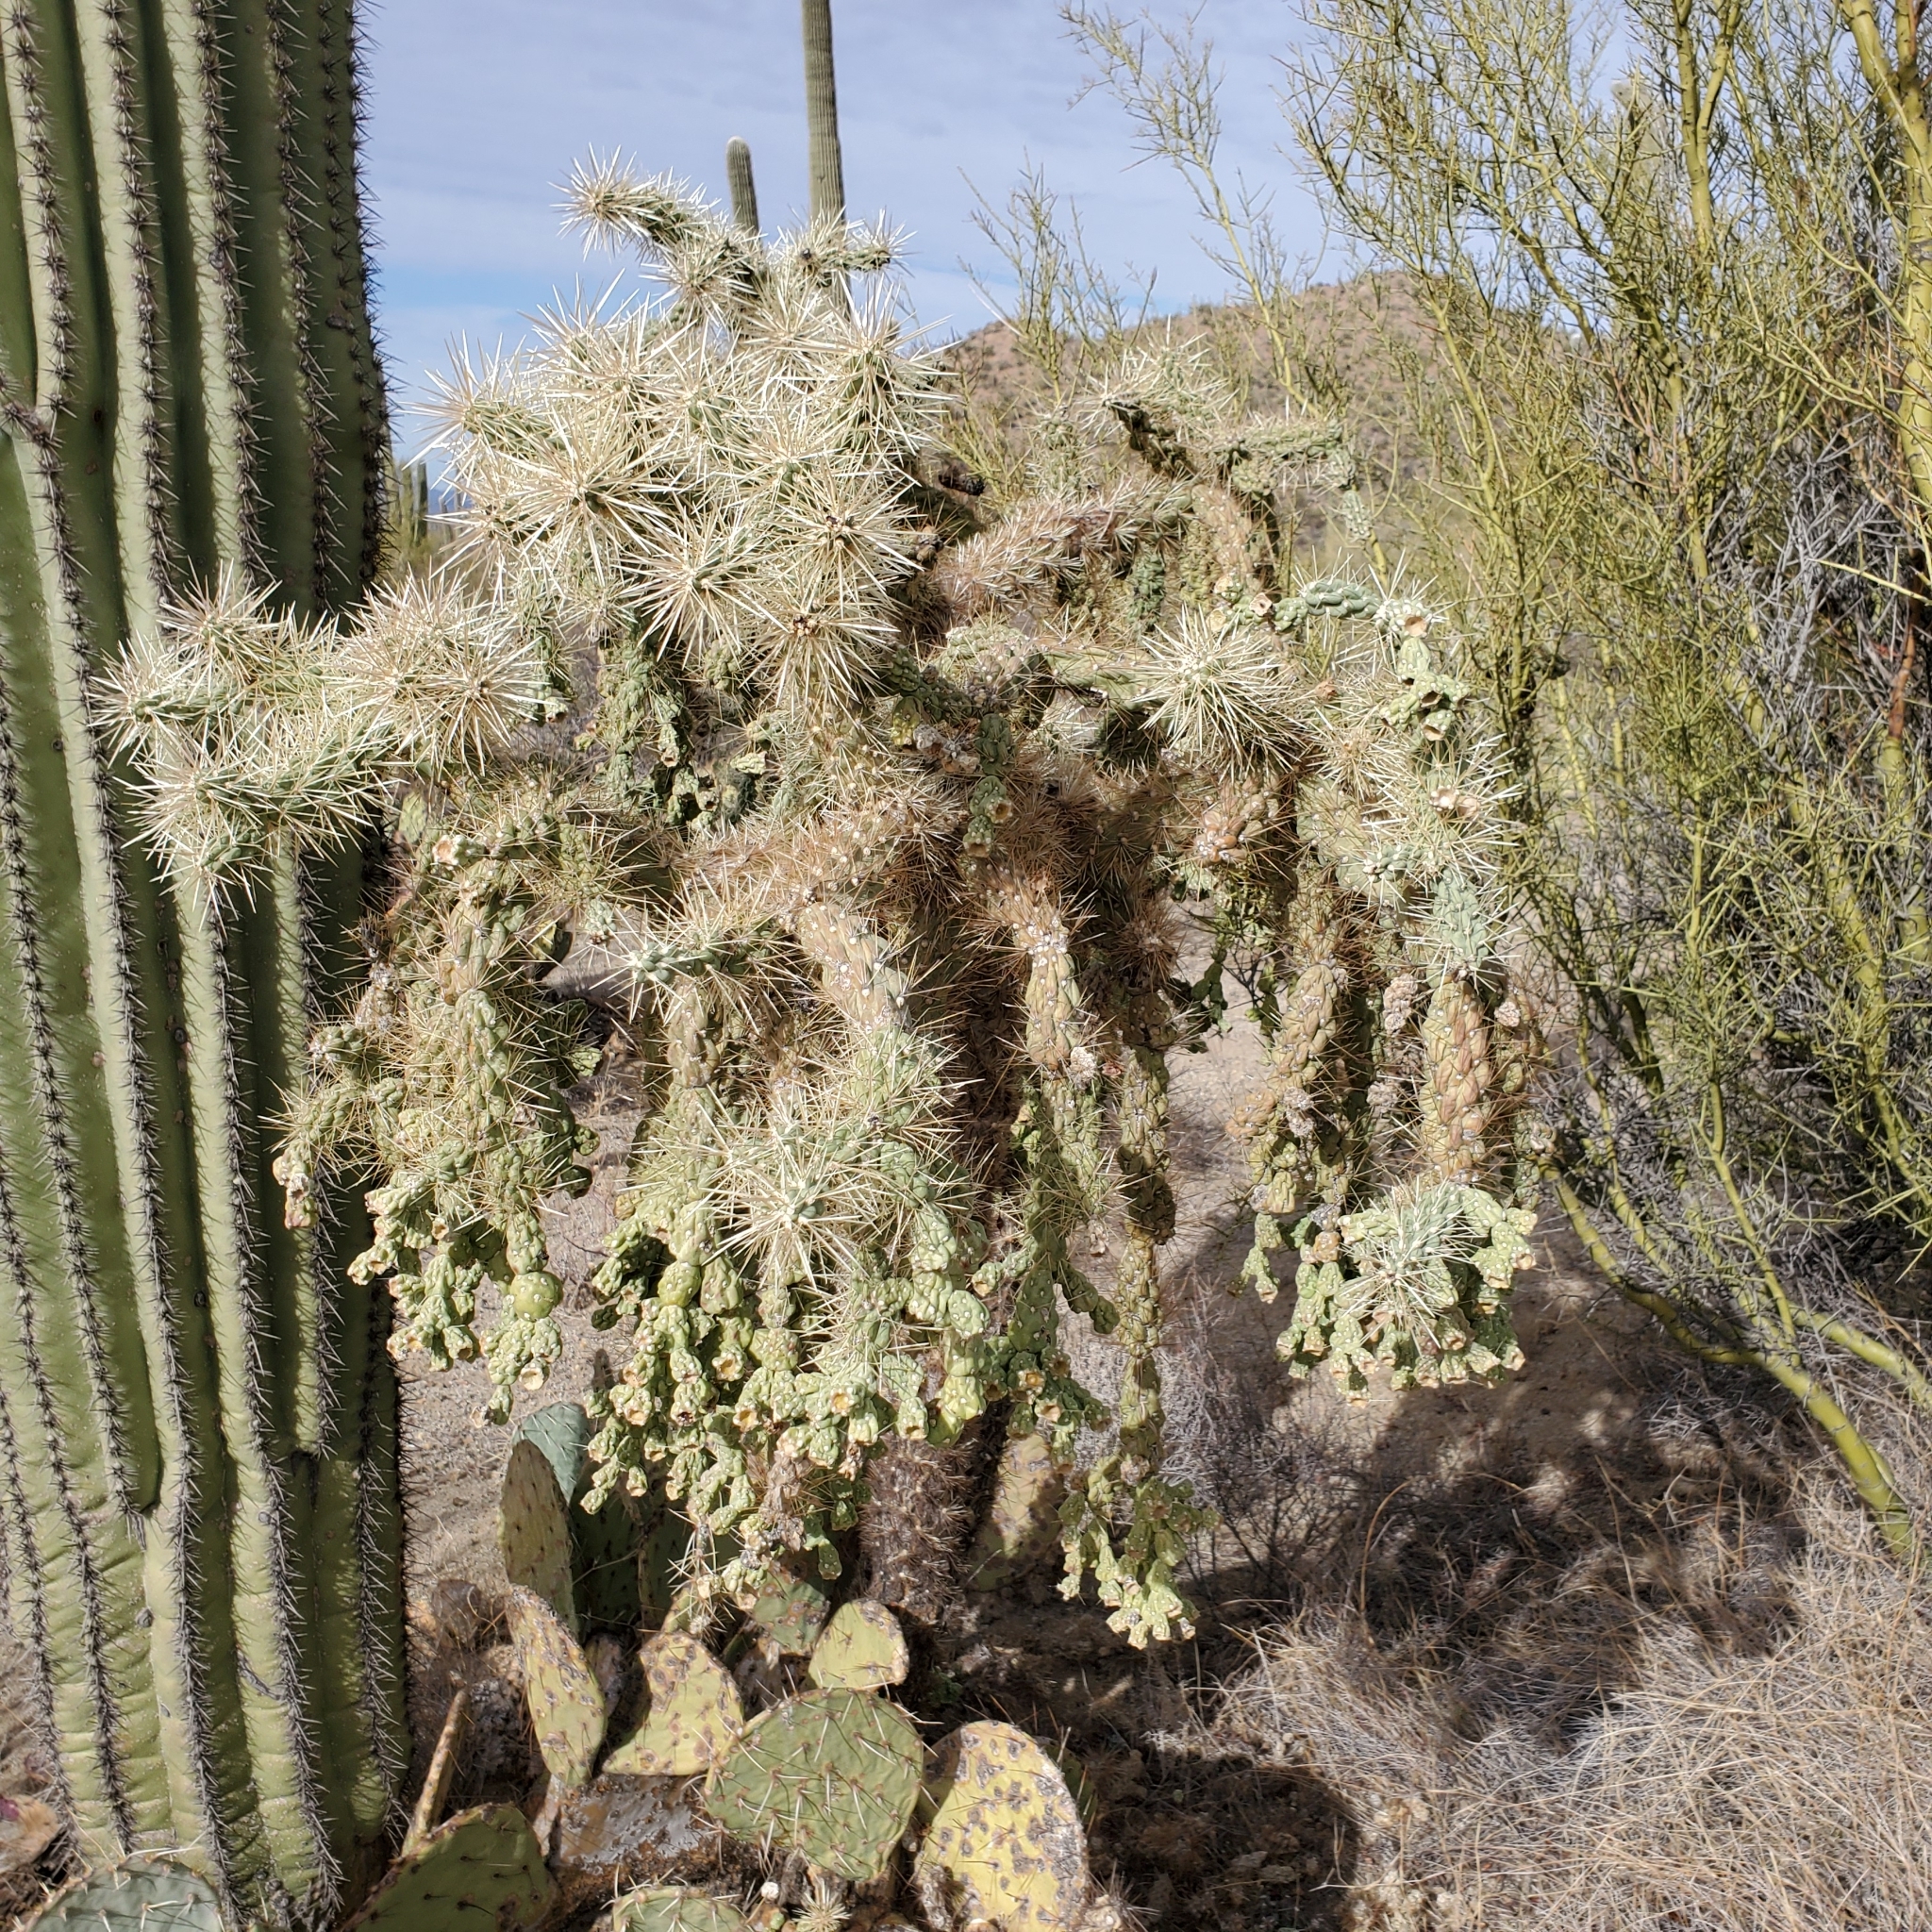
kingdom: Plantae
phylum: Tracheophyta
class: Magnoliopsida
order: Caryophyllales
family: Cactaceae
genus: Cylindropuntia
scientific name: Cylindropuntia fulgida
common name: Jumping cholla
